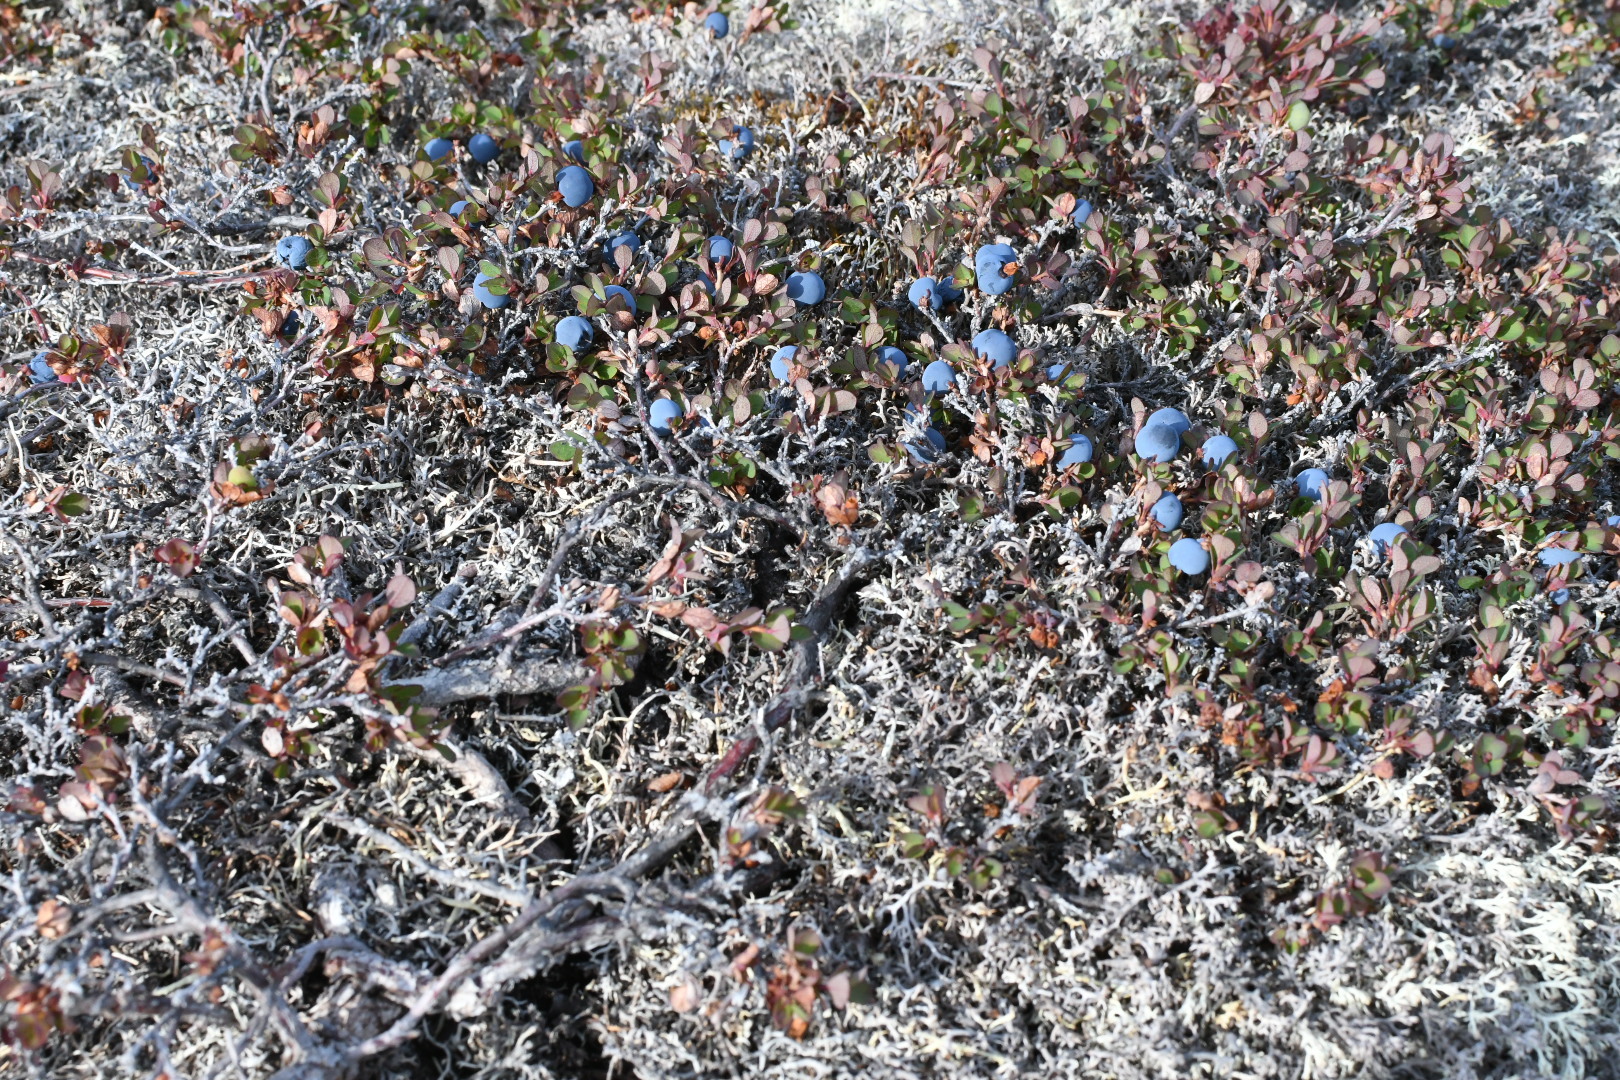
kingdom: Plantae
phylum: Tracheophyta
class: Magnoliopsida
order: Ericales
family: Ericaceae
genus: Vaccinium
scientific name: Vaccinium uliginosum
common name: Bog bilberry
